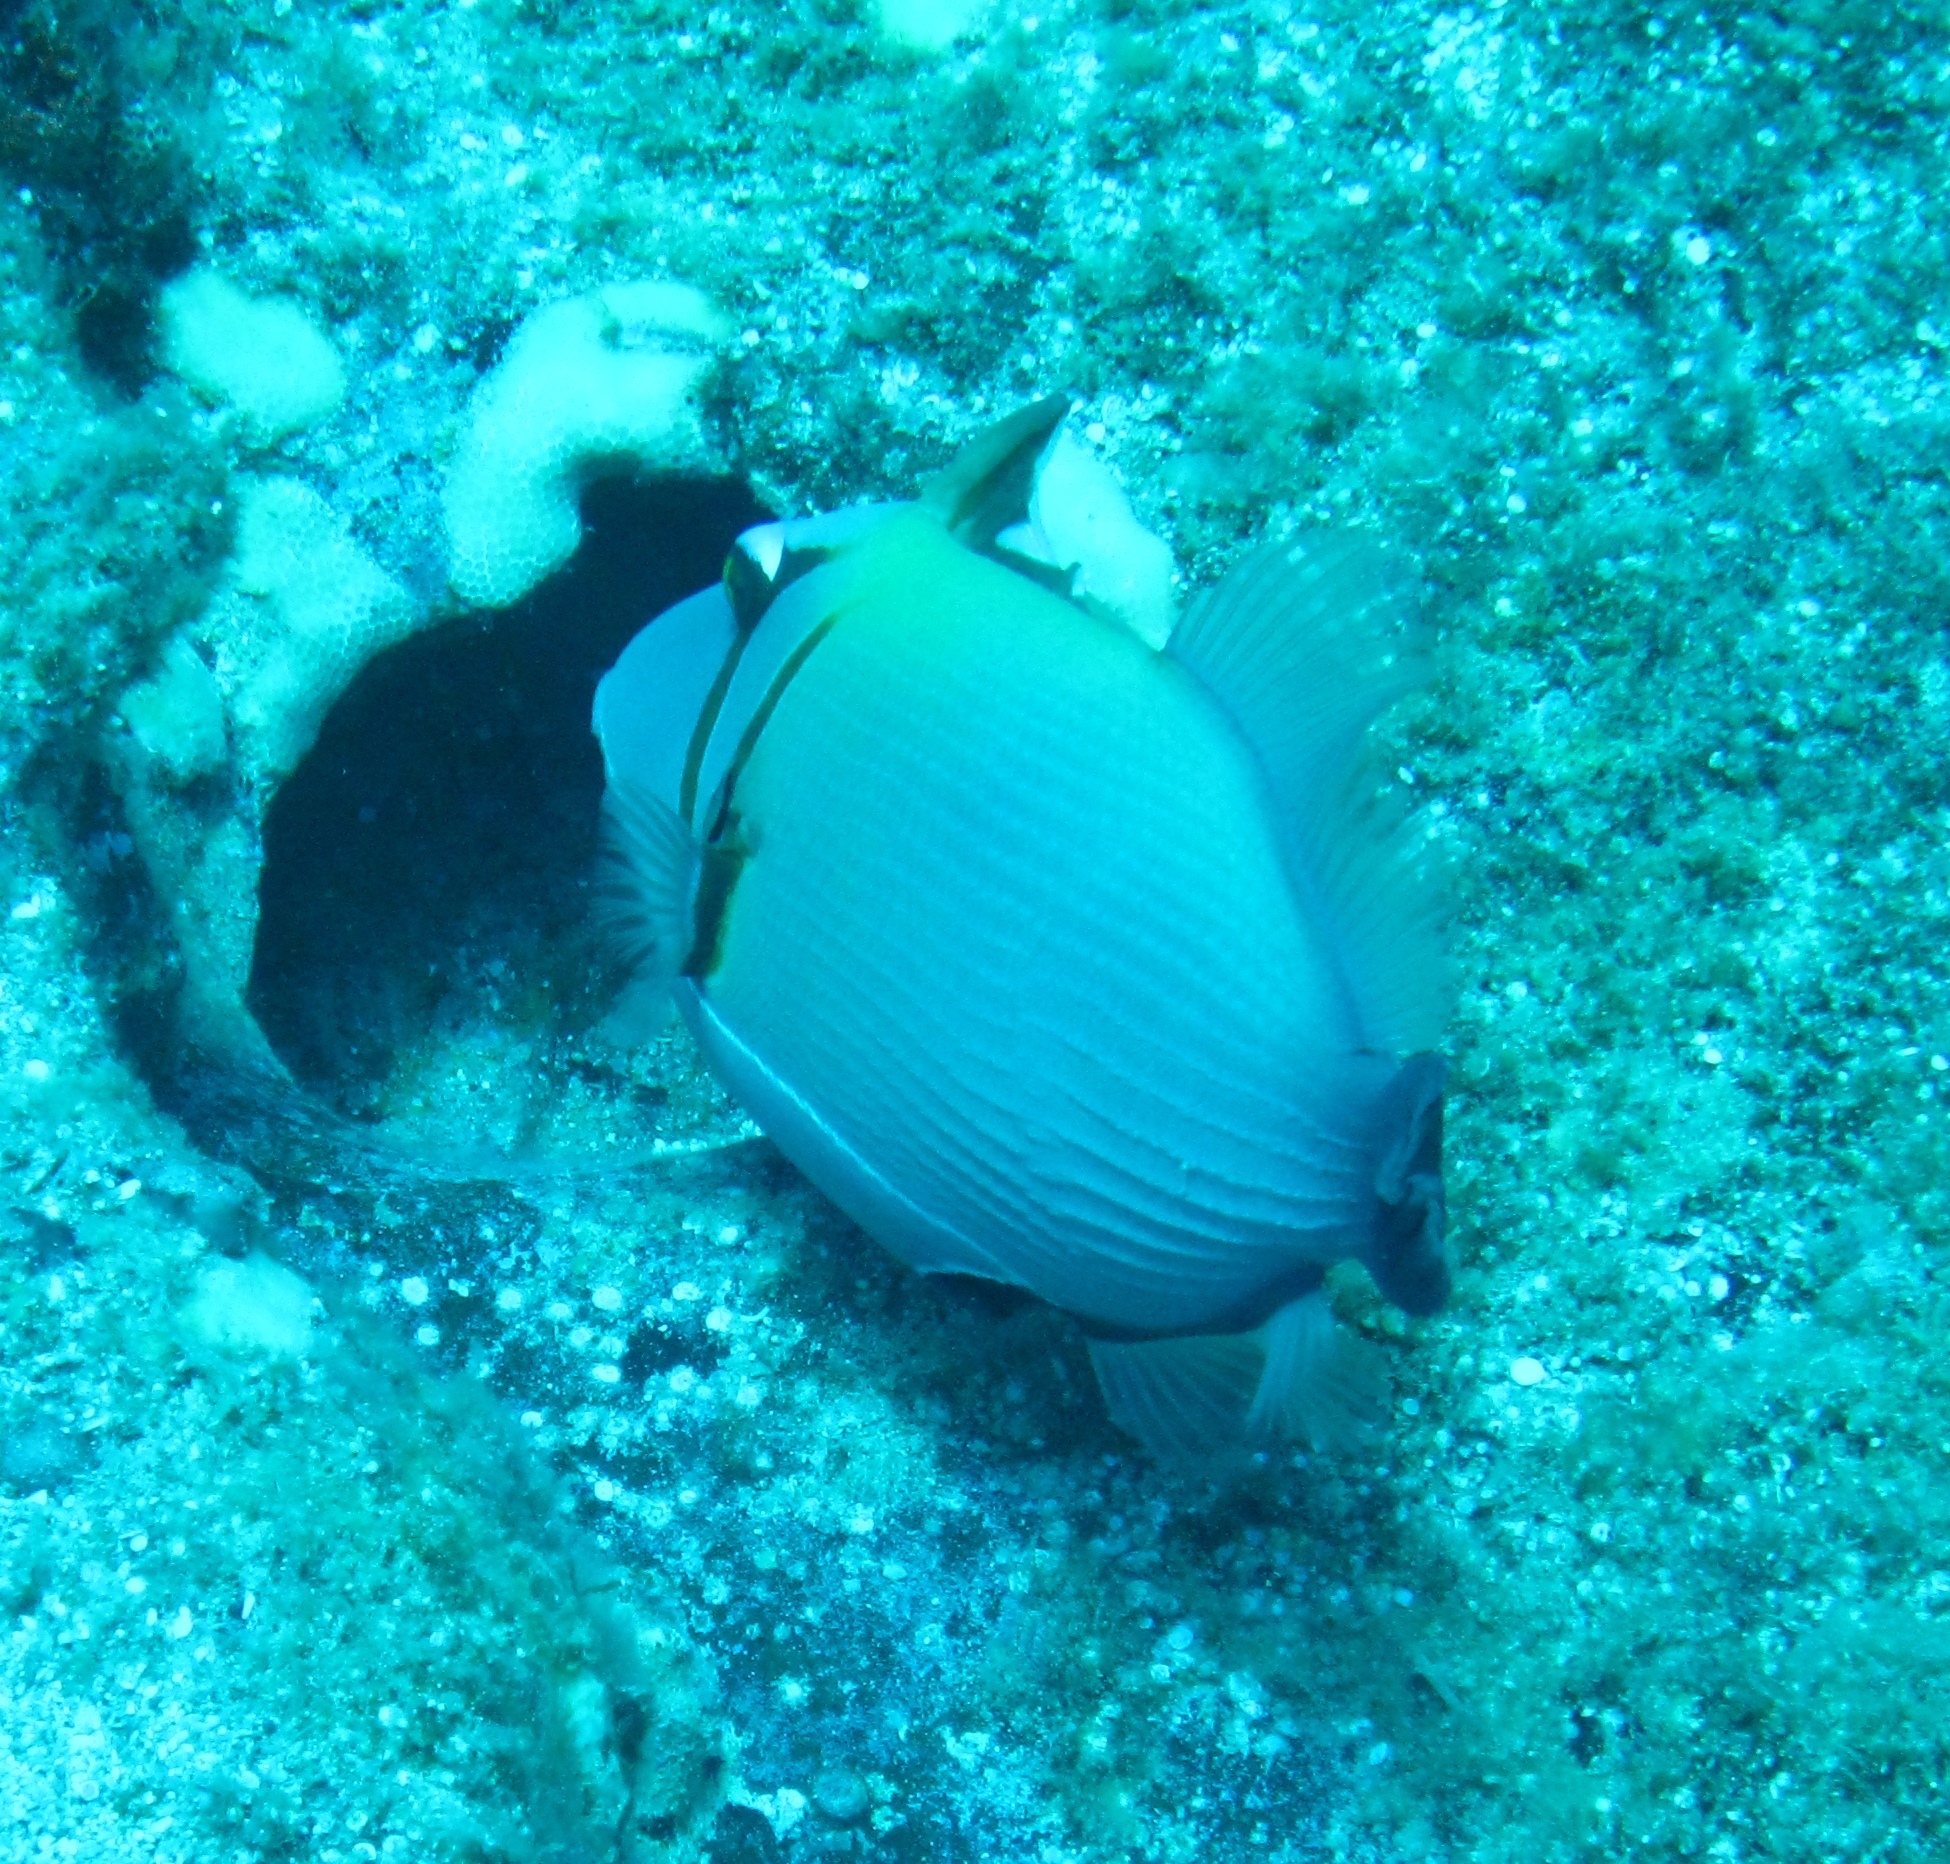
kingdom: Animalia
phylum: Chordata
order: Tetraodontiformes
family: Balistidae
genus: Sufflamen
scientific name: Sufflamen bursa
